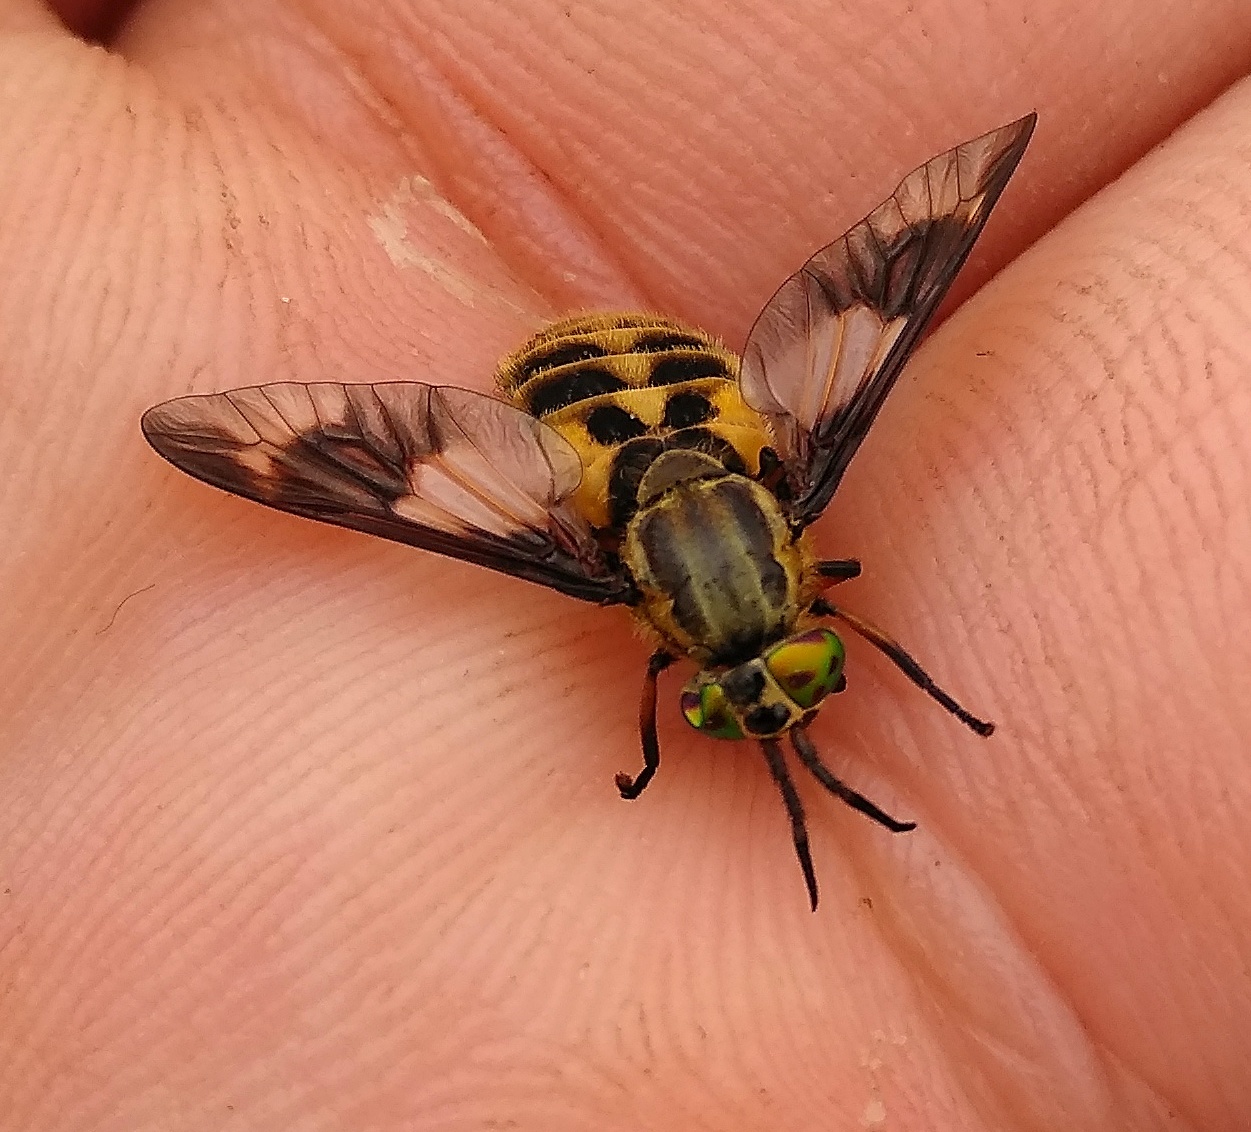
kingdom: Animalia
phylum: Arthropoda
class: Insecta
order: Diptera
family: Tabanidae
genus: Chrysops
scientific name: Chrysops relictus
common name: Twin-lobed deerfly
